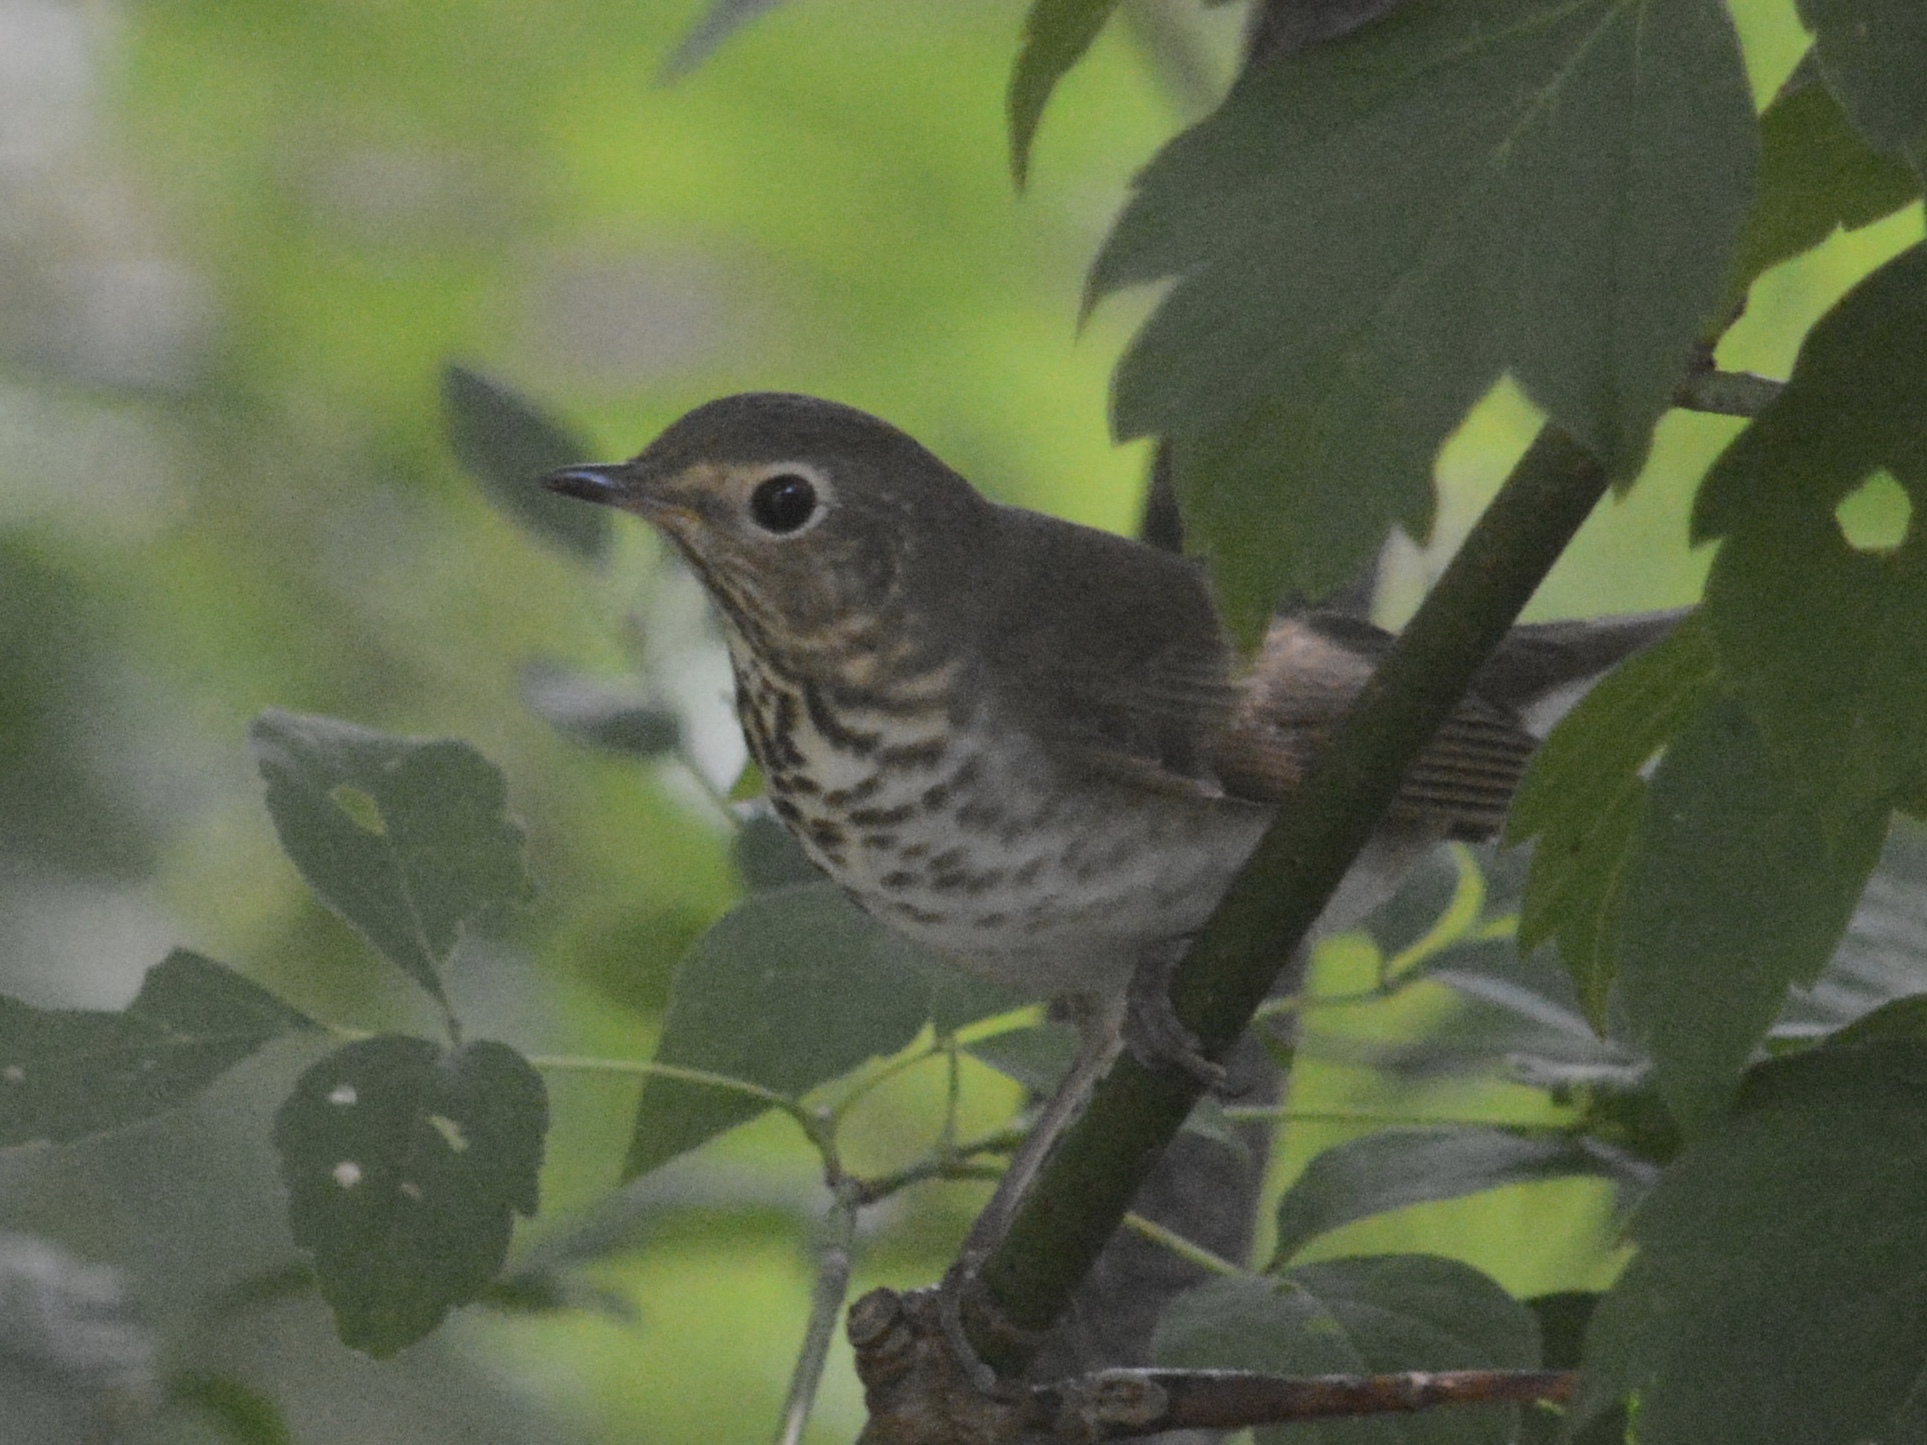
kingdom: Animalia
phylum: Chordata
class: Aves
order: Passeriformes
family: Turdidae
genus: Catharus
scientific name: Catharus ustulatus
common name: Swainson's thrush
